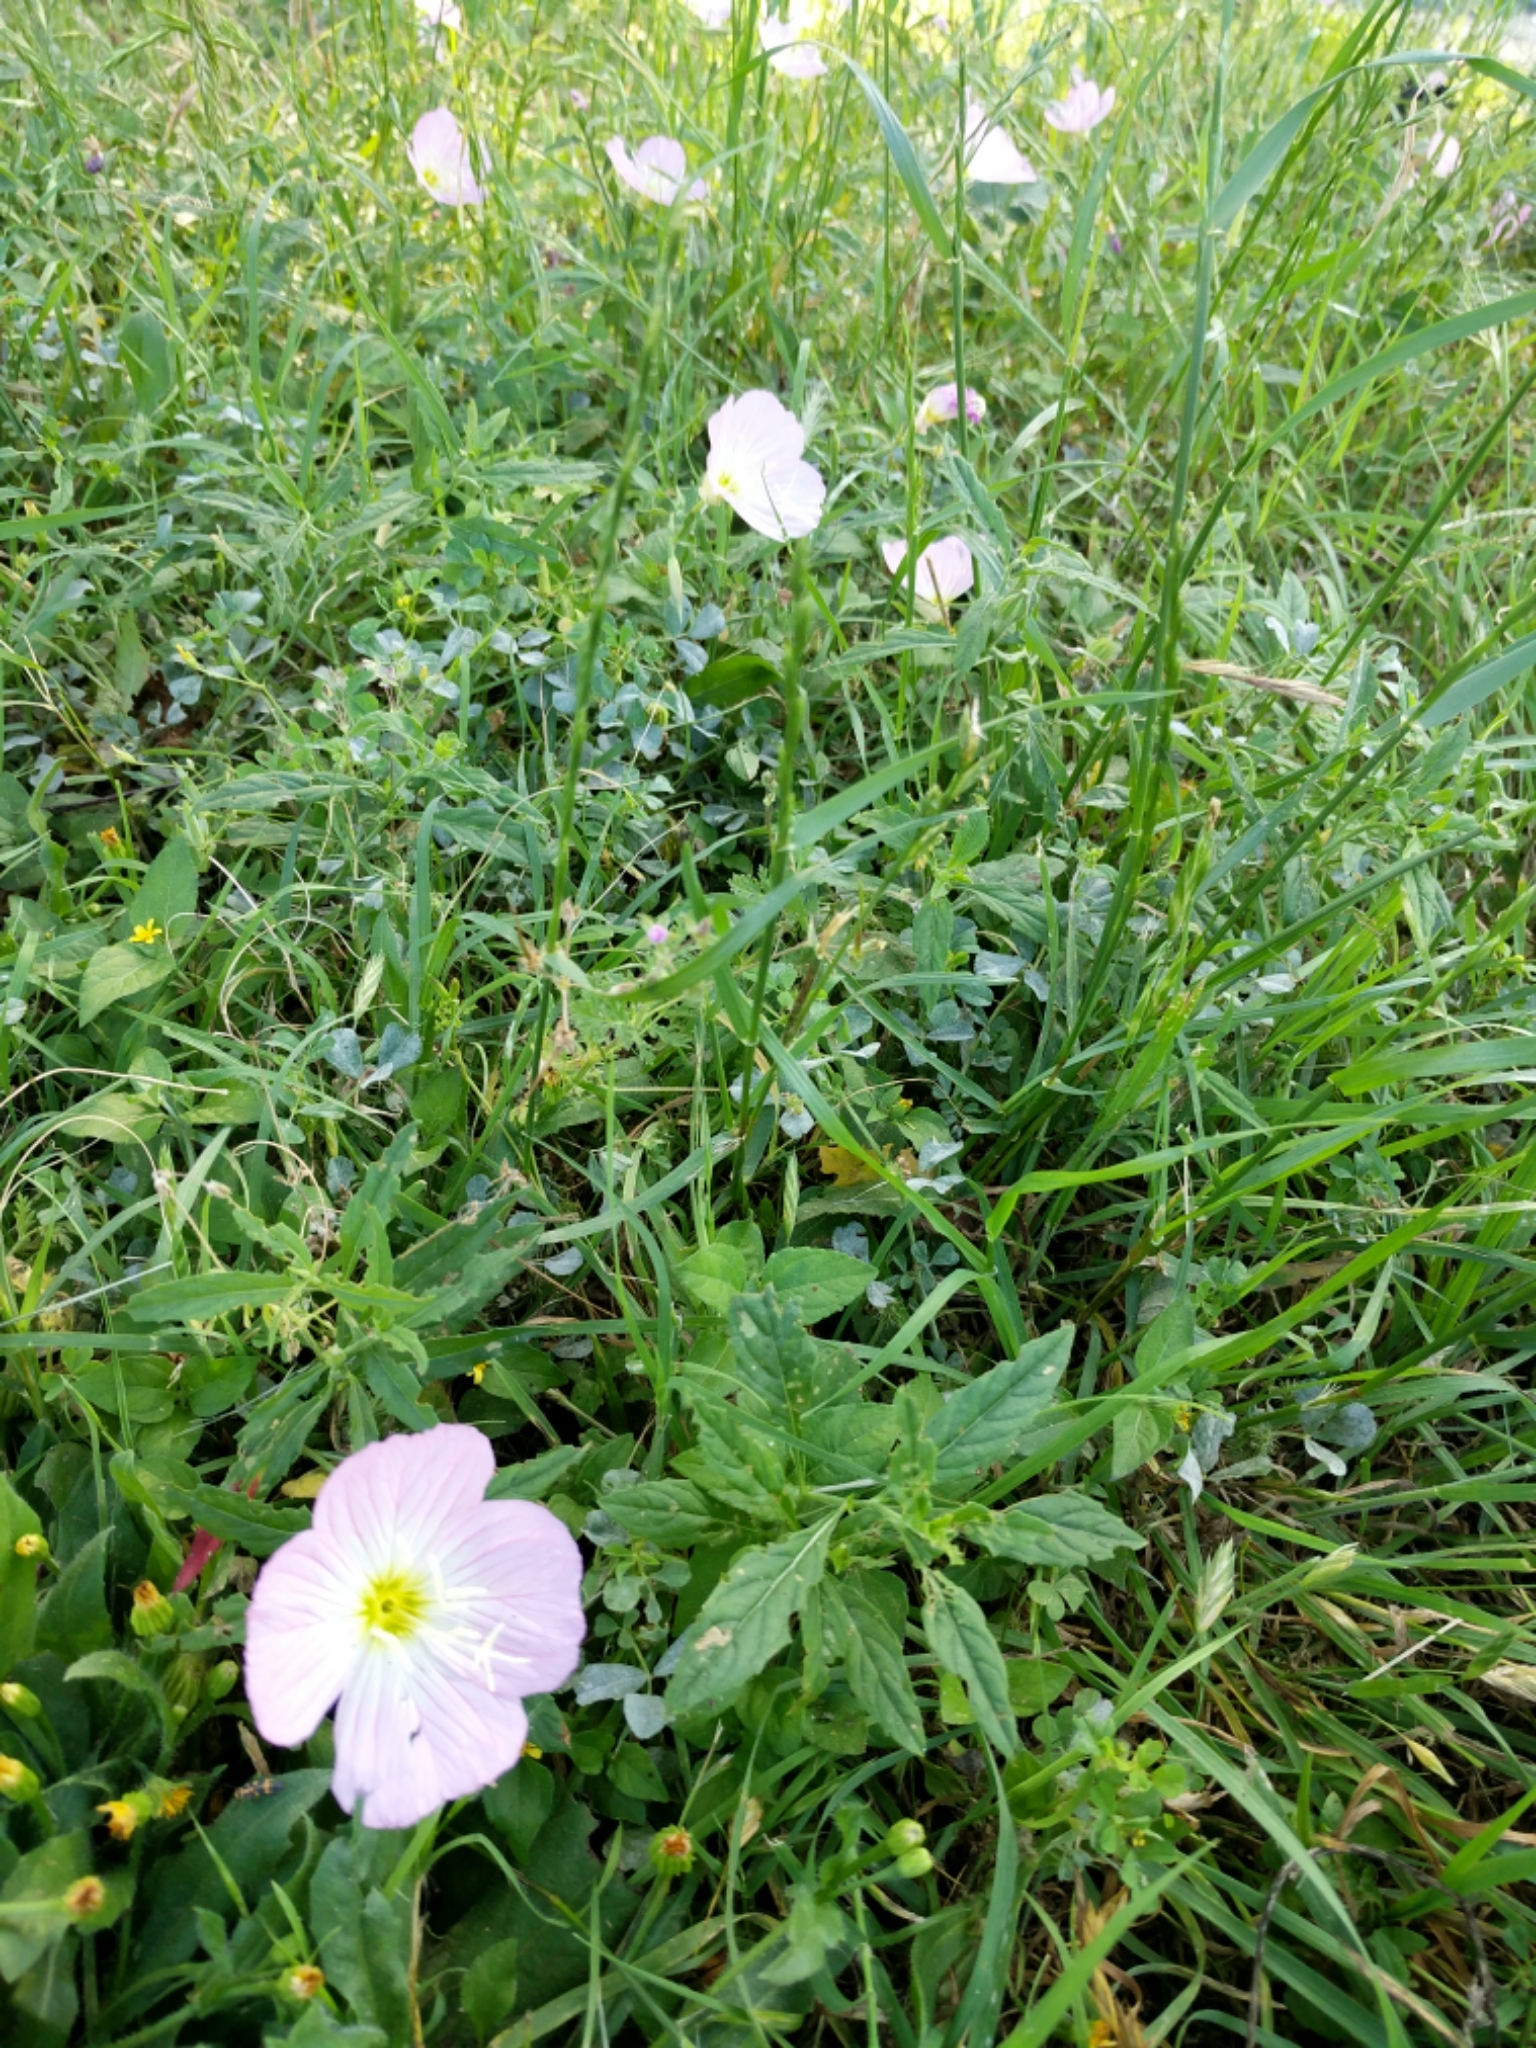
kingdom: Plantae
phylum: Tracheophyta
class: Magnoliopsida
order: Myrtales
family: Onagraceae
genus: Oenothera
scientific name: Oenothera speciosa
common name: White evening-primrose
